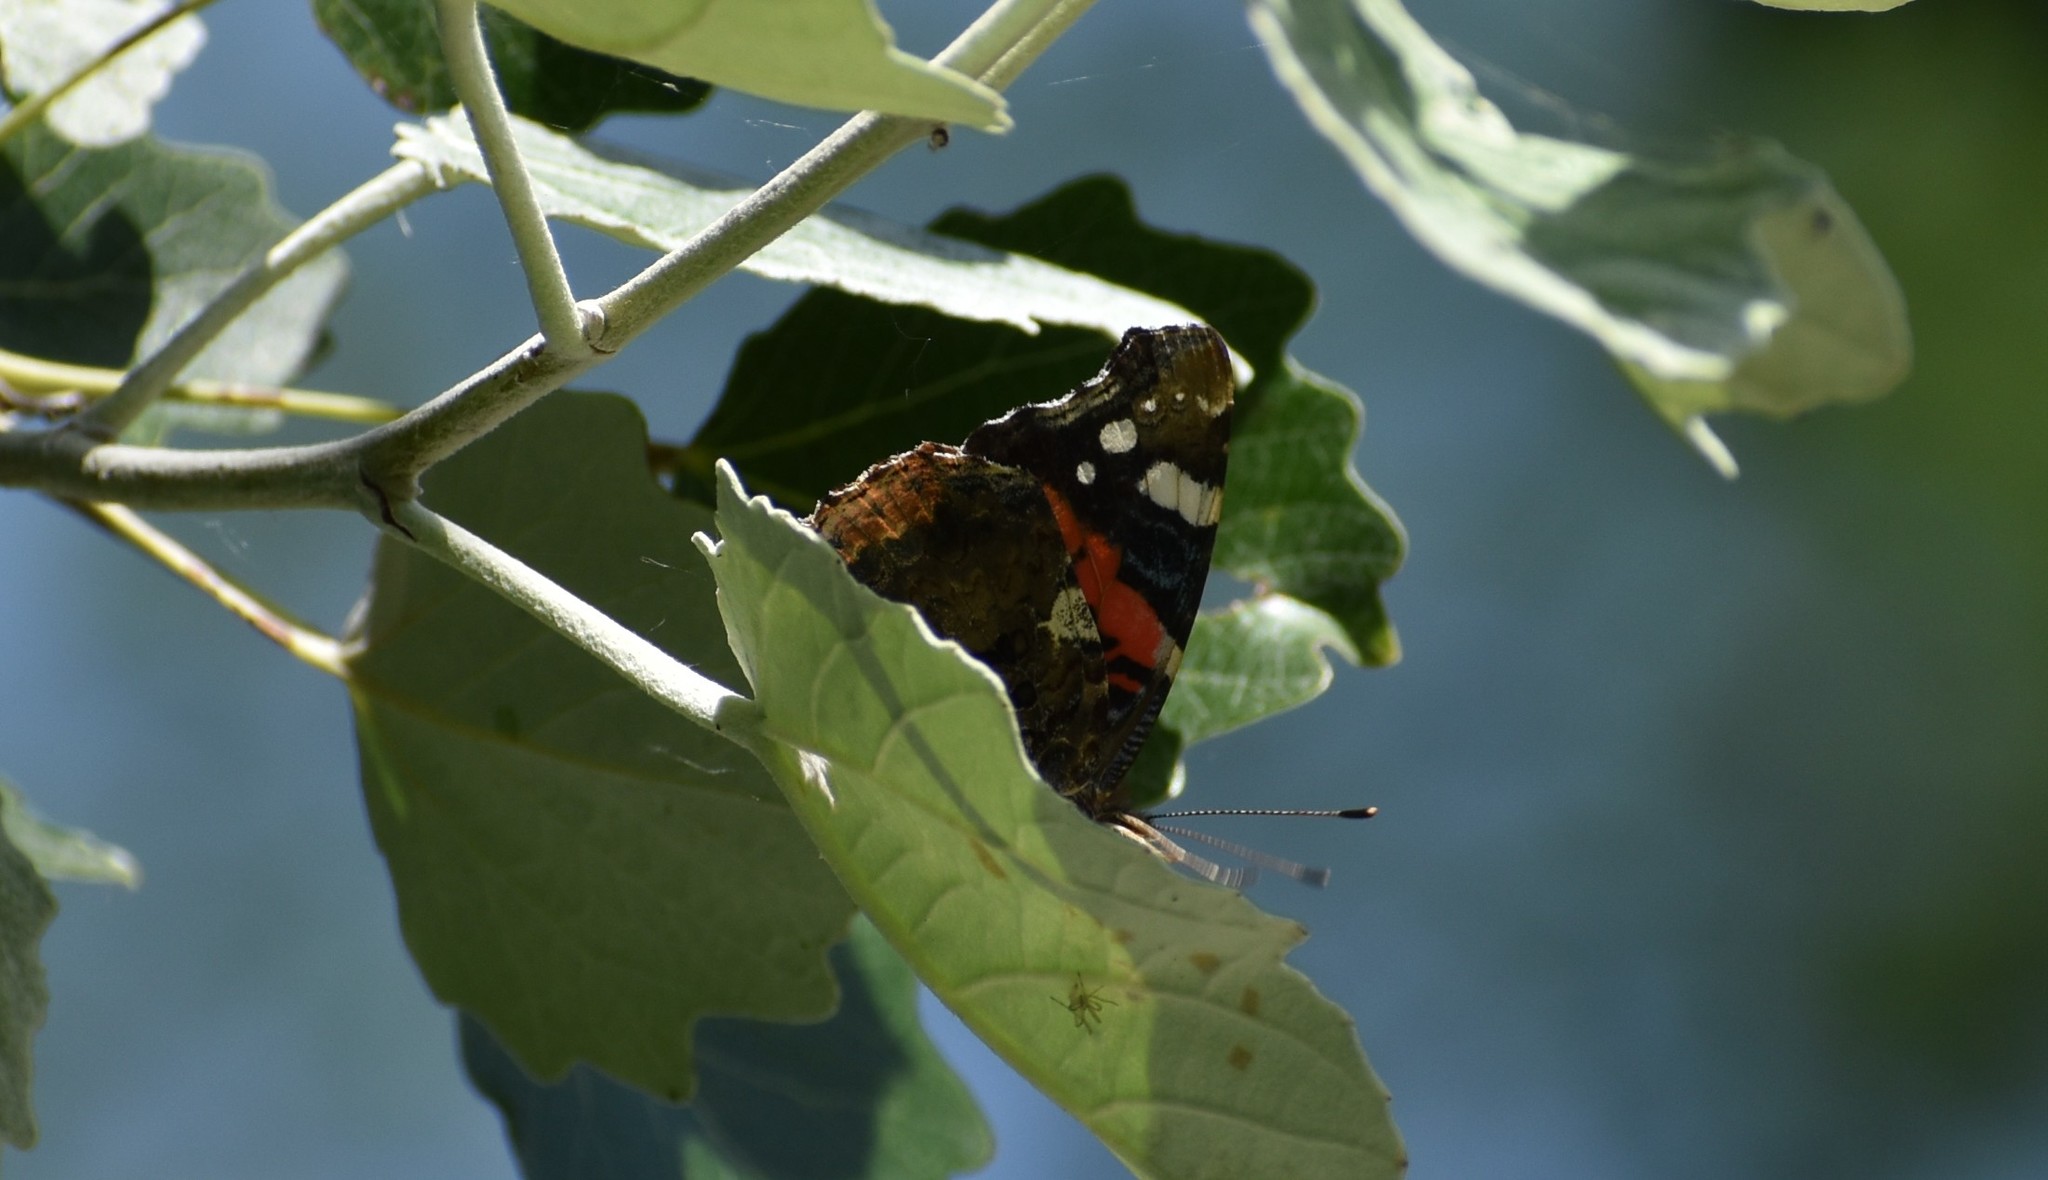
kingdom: Animalia
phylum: Arthropoda
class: Insecta
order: Lepidoptera
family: Nymphalidae
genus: Vanessa
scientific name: Vanessa atalanta
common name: Red admiral
